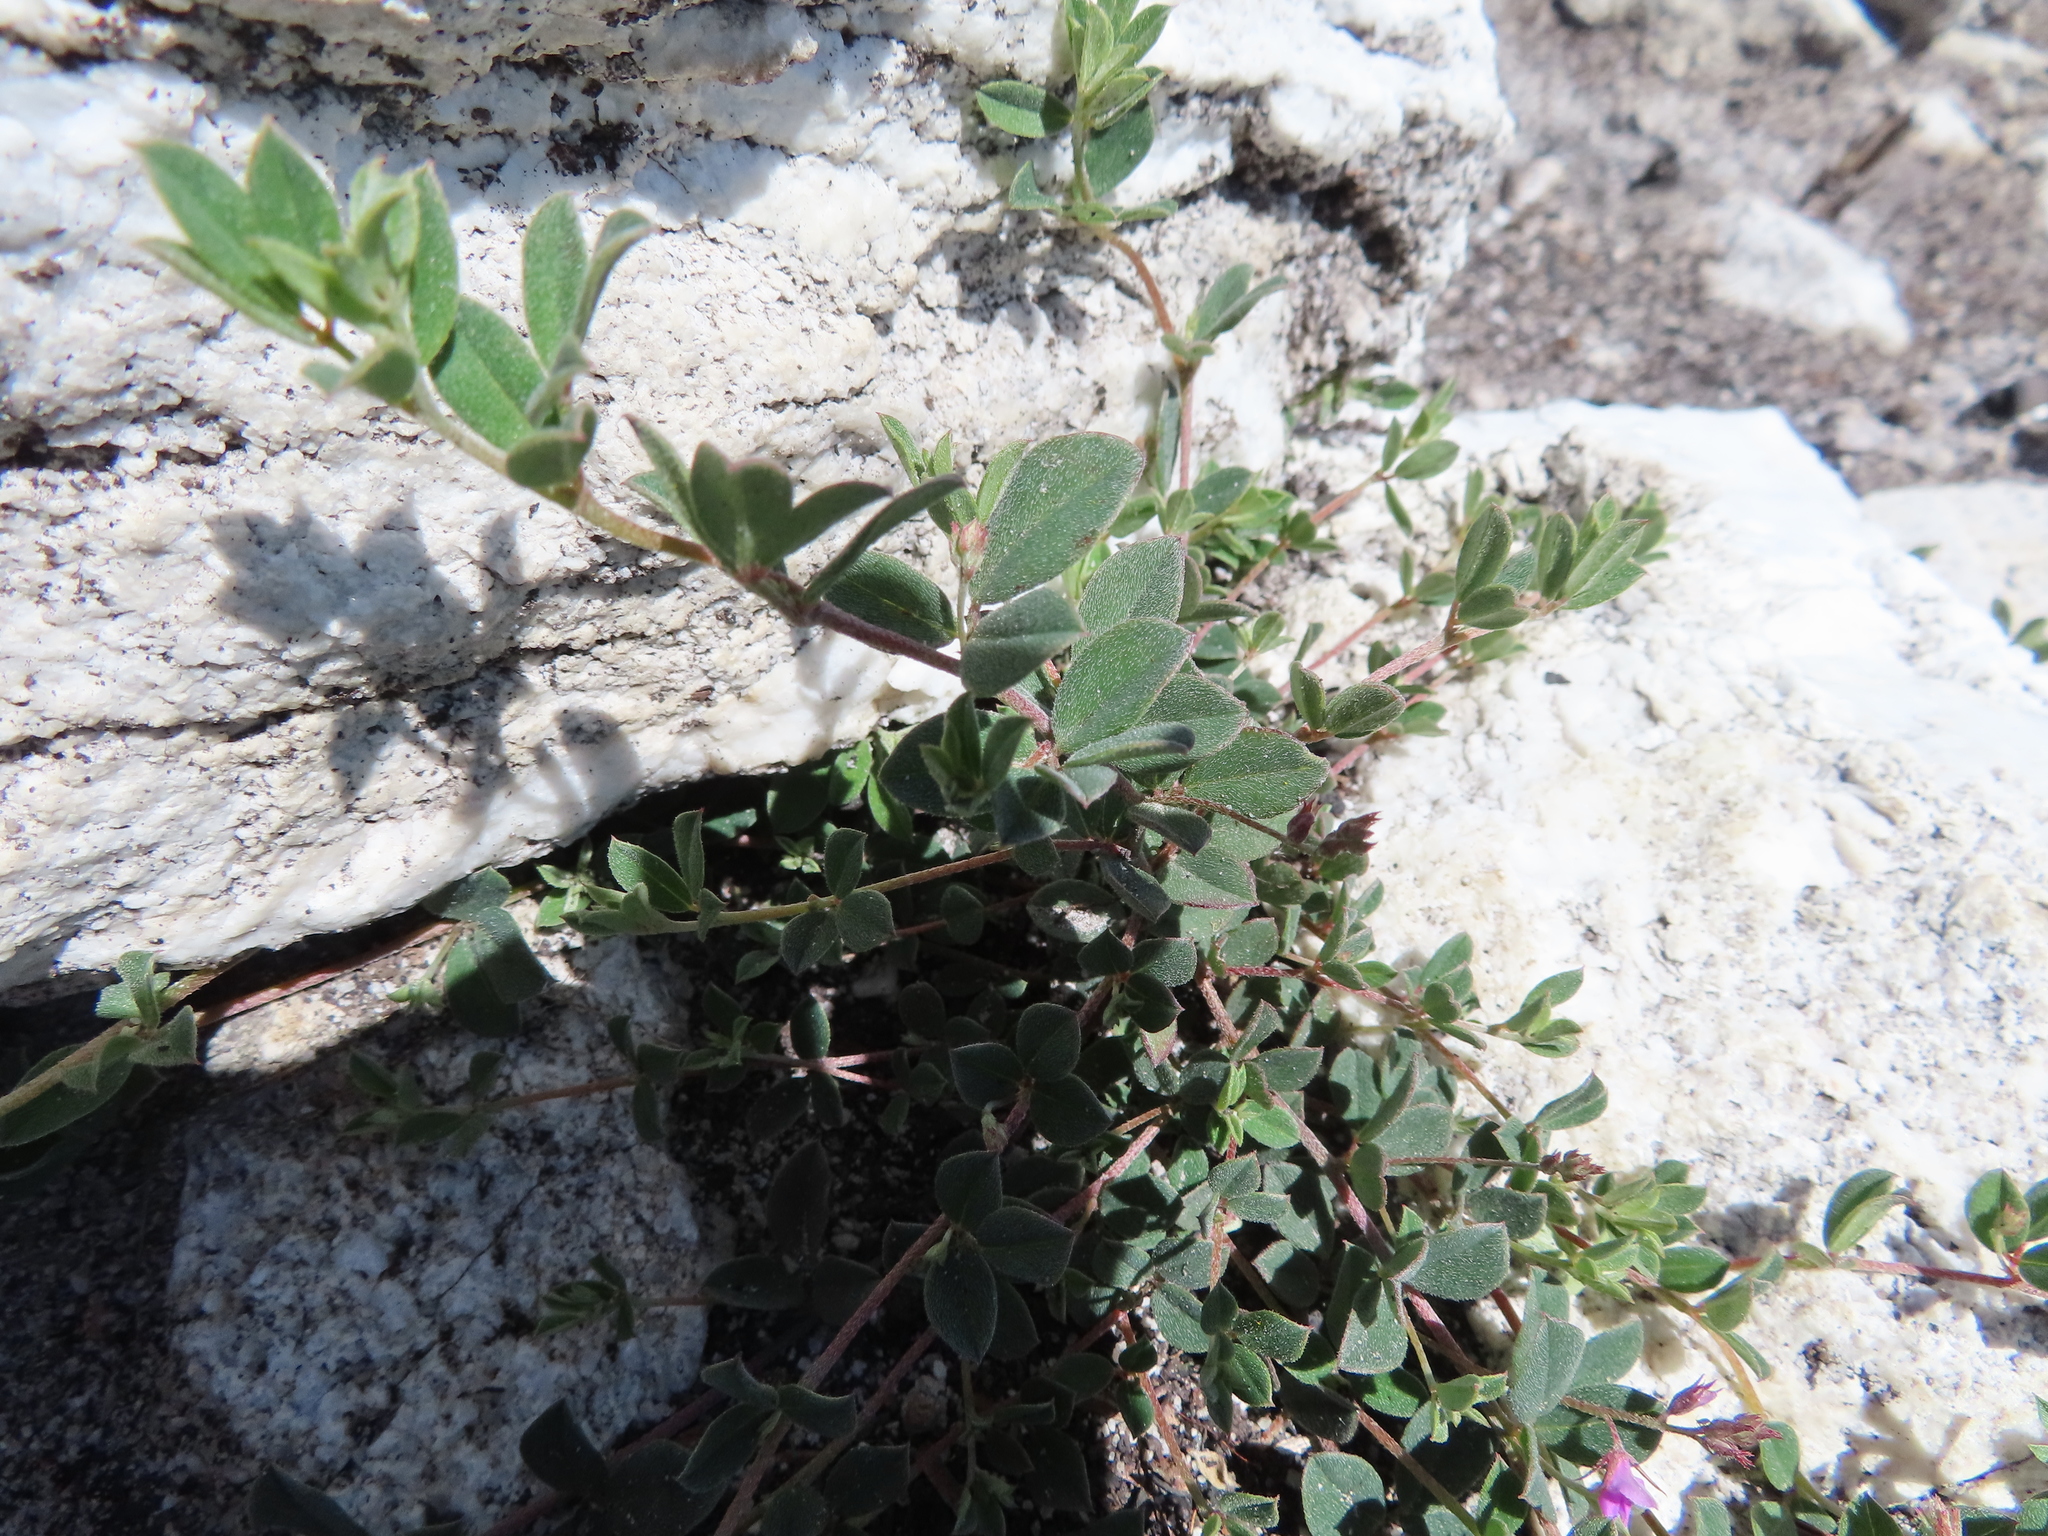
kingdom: Plantae
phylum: Tracheophyta
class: Magnoliopsida
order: Fabales
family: Fabaceae
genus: Indigofera
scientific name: Indigofera sarmentosa
